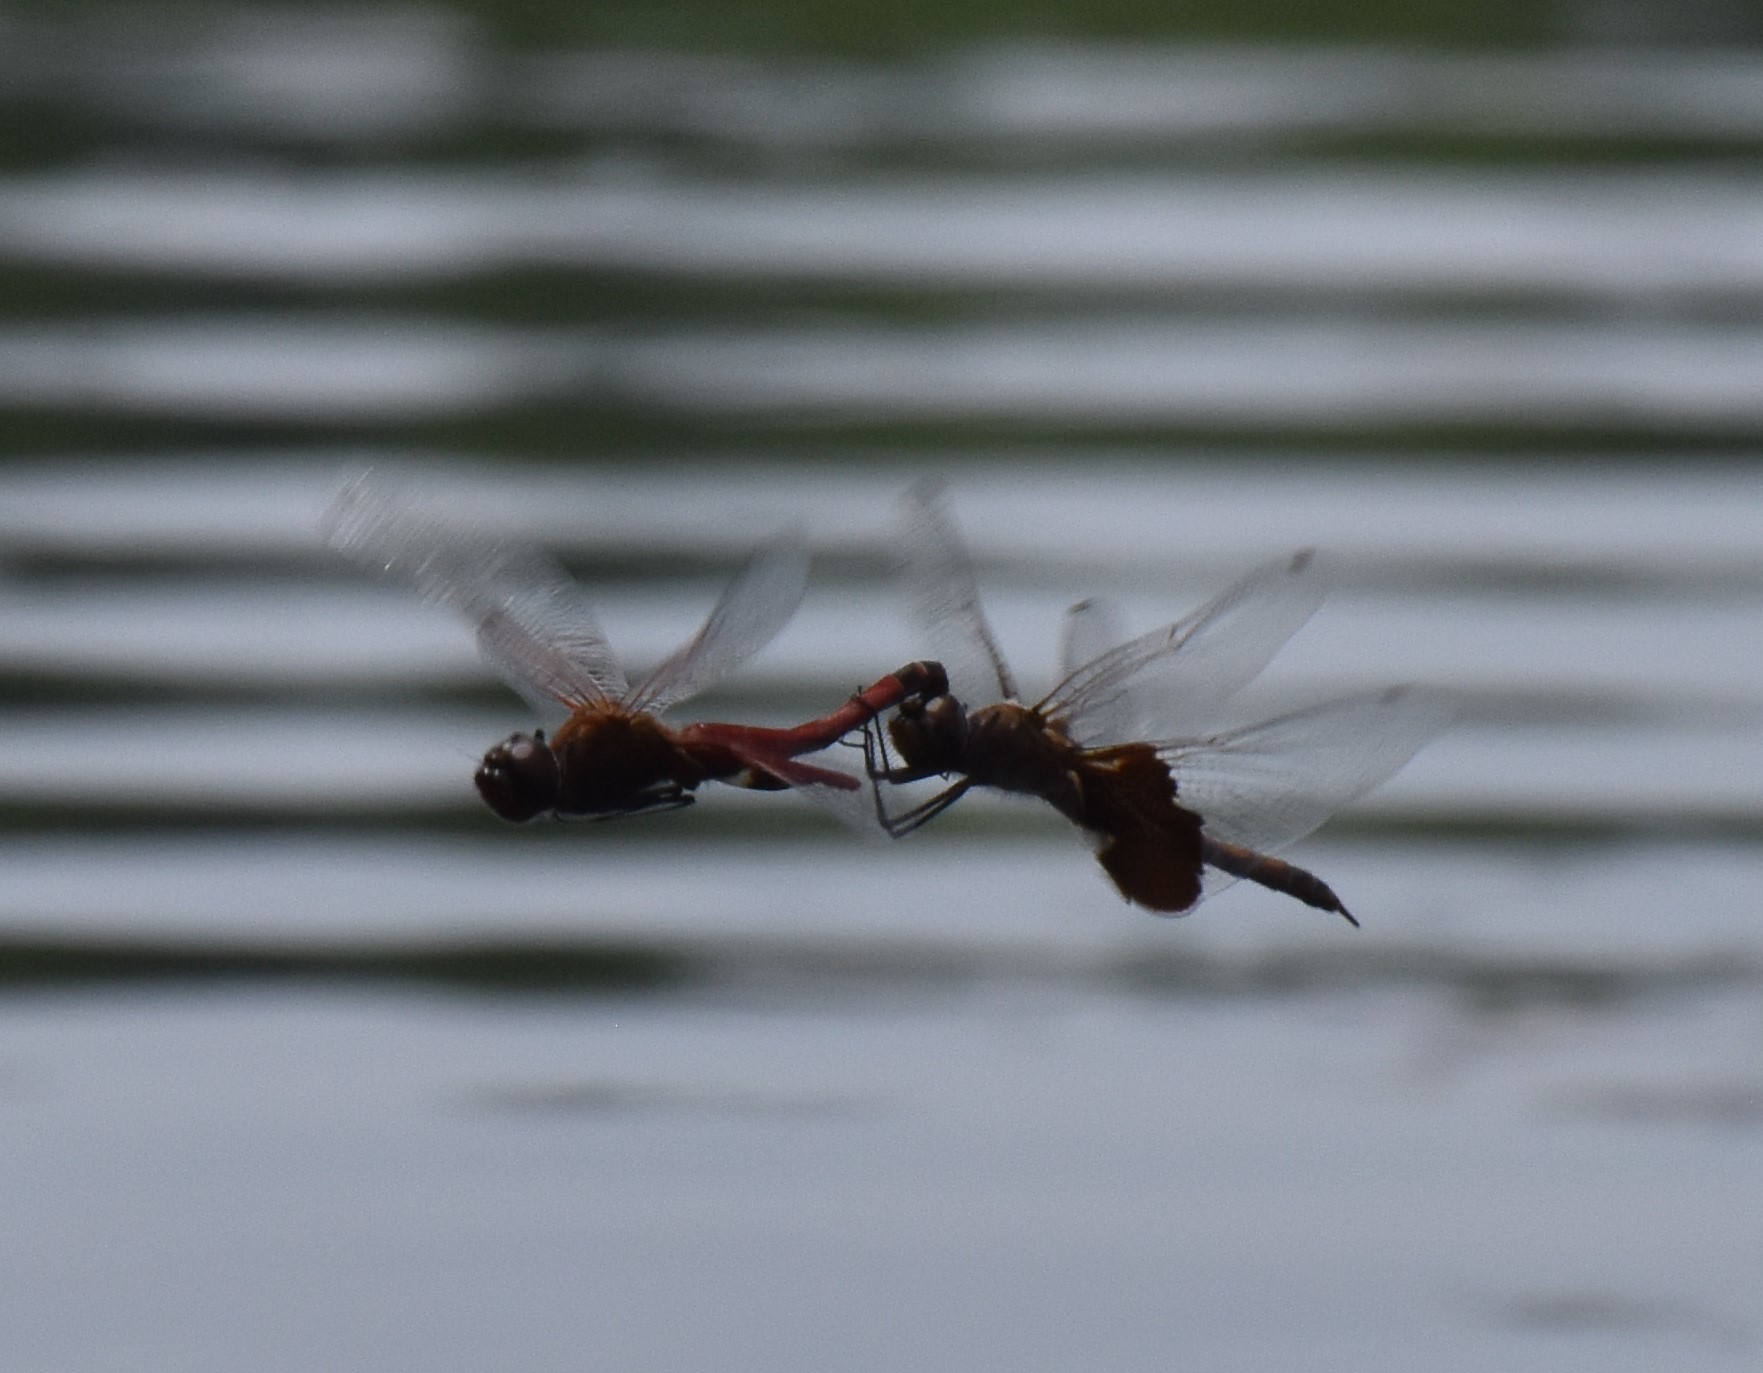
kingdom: Animalia
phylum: Arthropoda
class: Insecta
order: Odonata
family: Libellulidae
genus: Tramea
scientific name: Tramea carolina
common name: Carolina saddlebags
